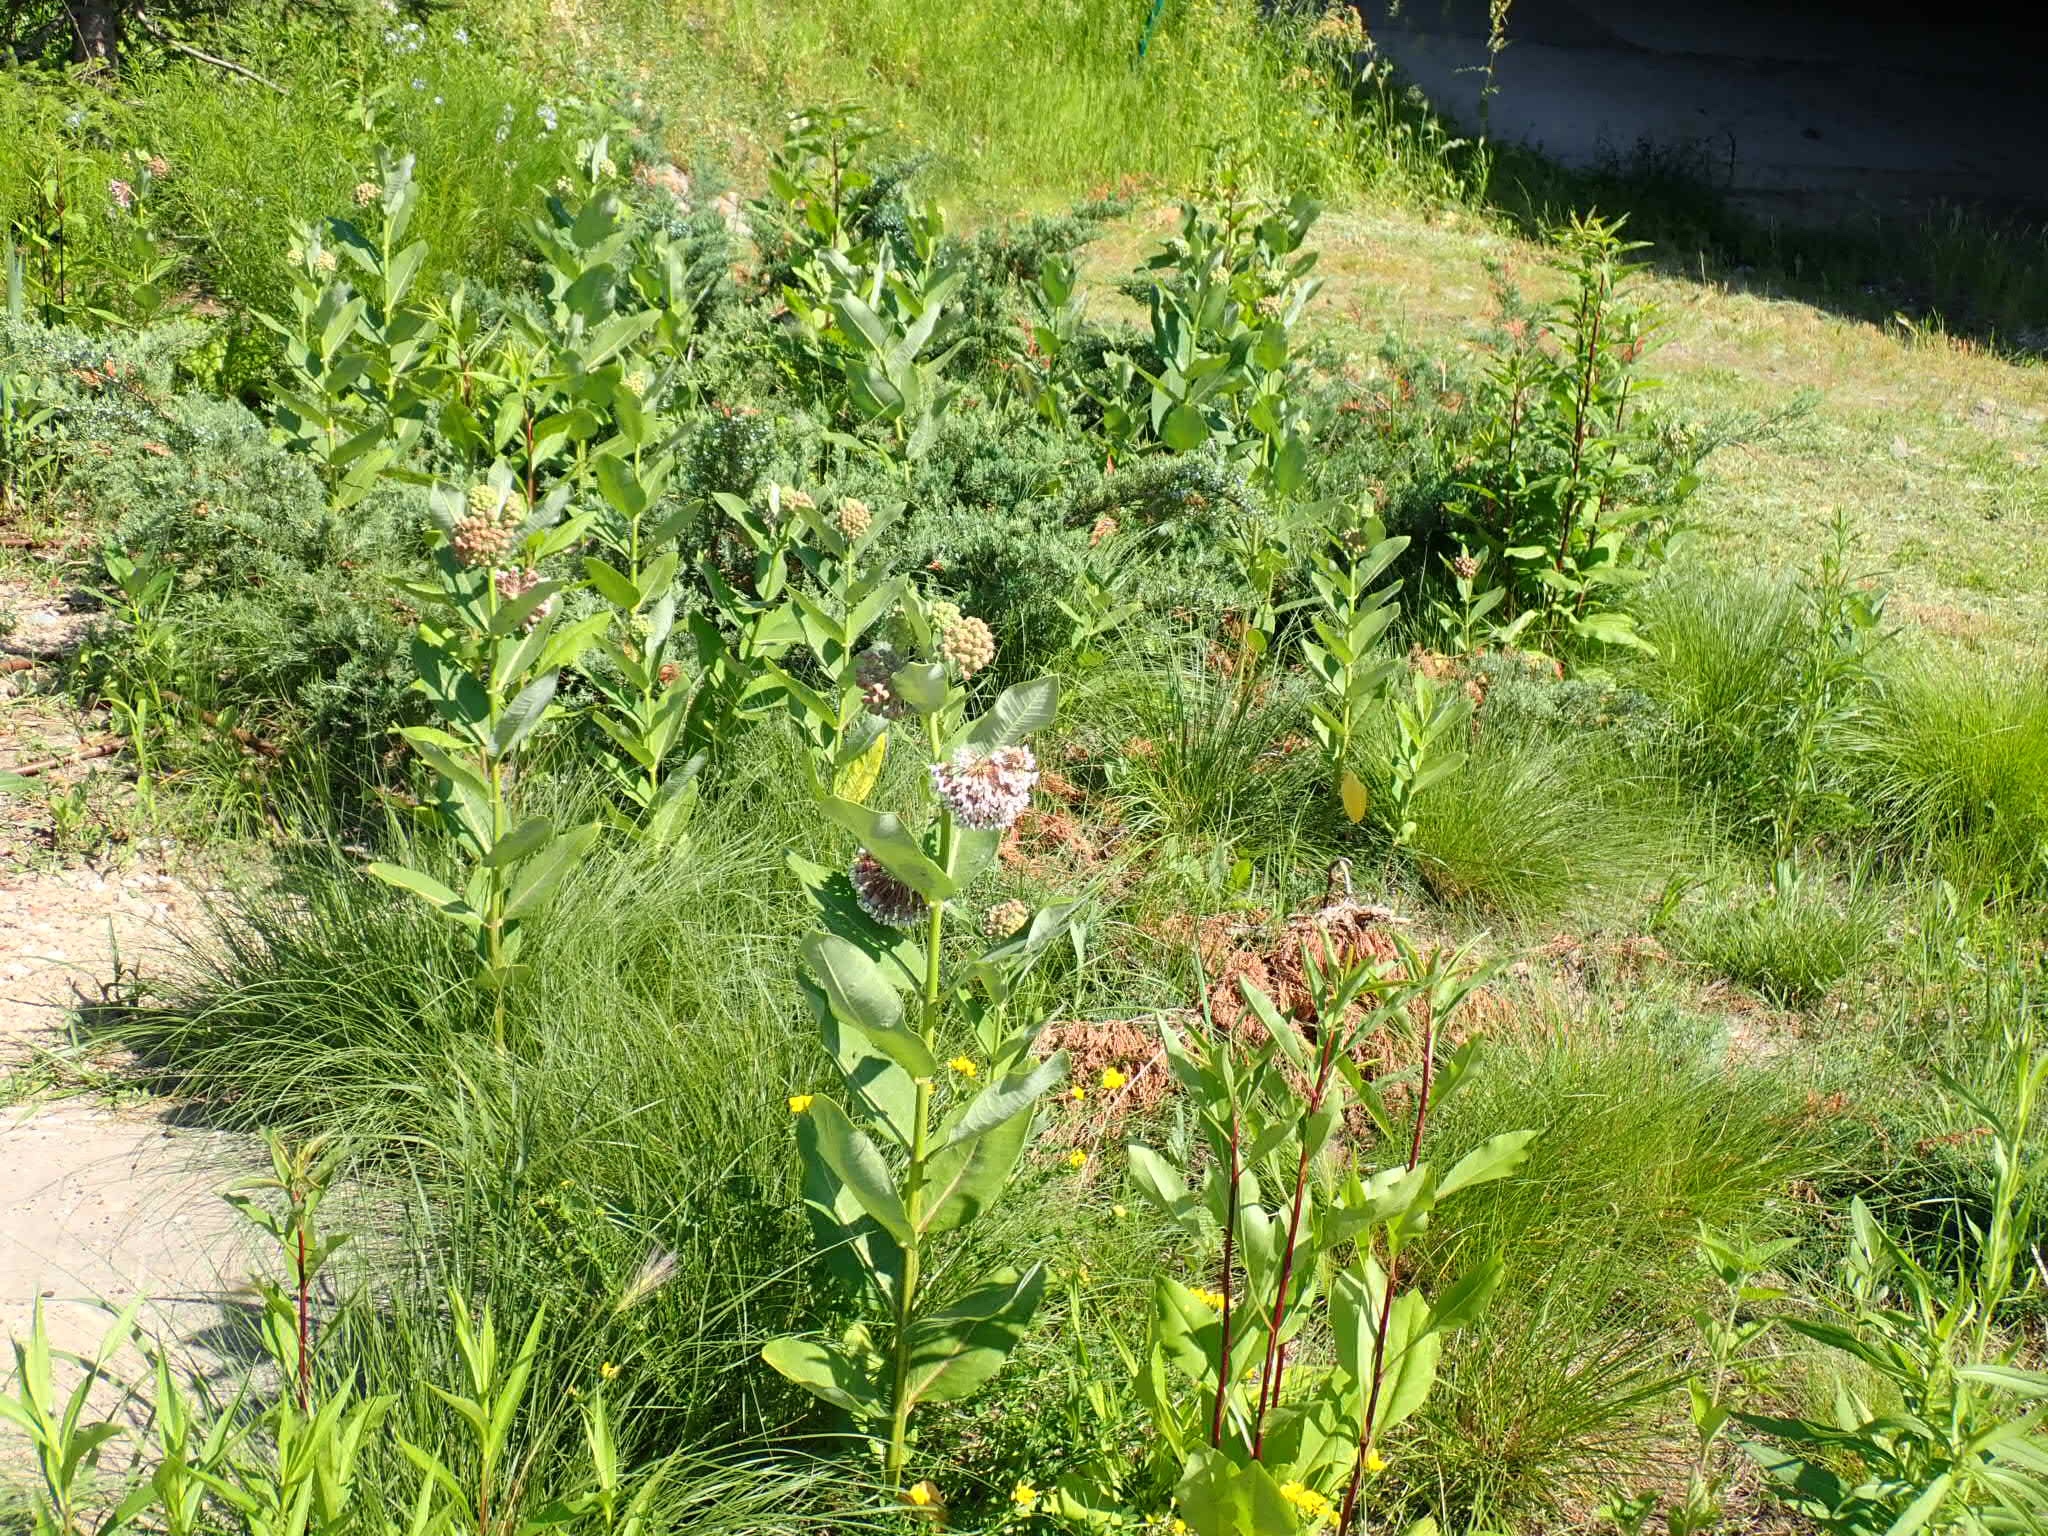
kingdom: Plantae
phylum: Tracheophyta
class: Magnoliopsida
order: Gentianales
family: Apocynaceae
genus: Asclepias
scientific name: Asclepias syriaca
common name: Common milkweed
